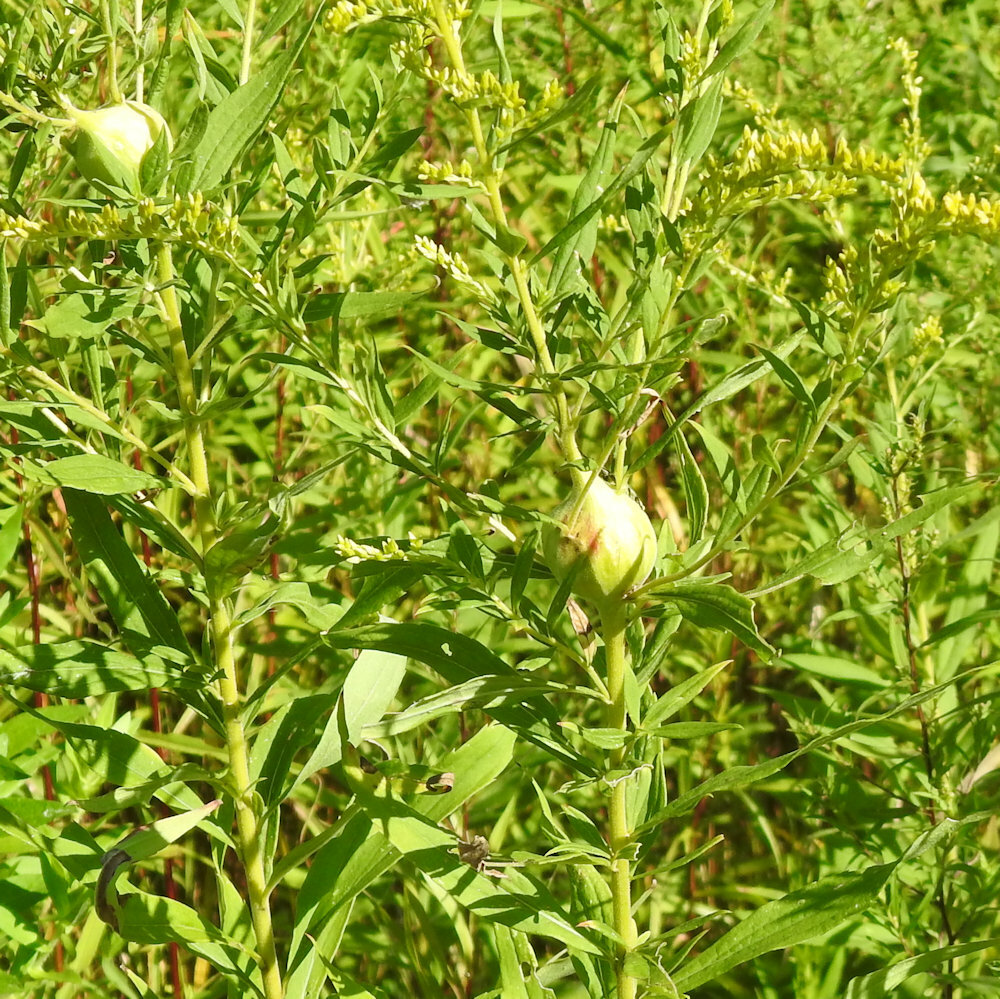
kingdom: Animalia
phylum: Arthropoda
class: Insecta
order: Diptera
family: Tephritidae
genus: Eurosta
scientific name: Eurosta solidaginis
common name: Goldenrod gall fly
